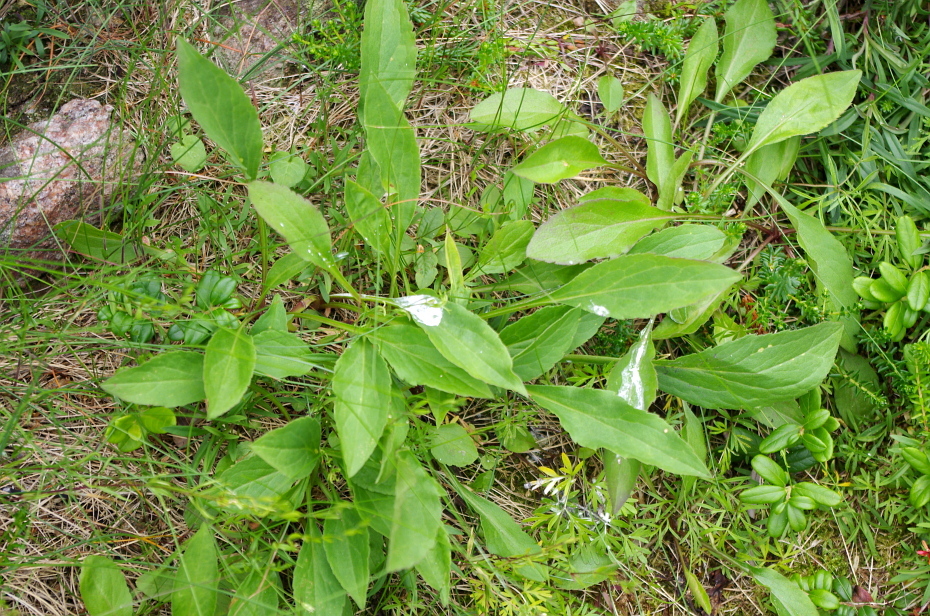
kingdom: Plantae
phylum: Tracheophyta
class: Magnoliopsida
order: Asterales
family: Asteraceae
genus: Solidago
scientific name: Solidago virgaurea
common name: Goldenrod
